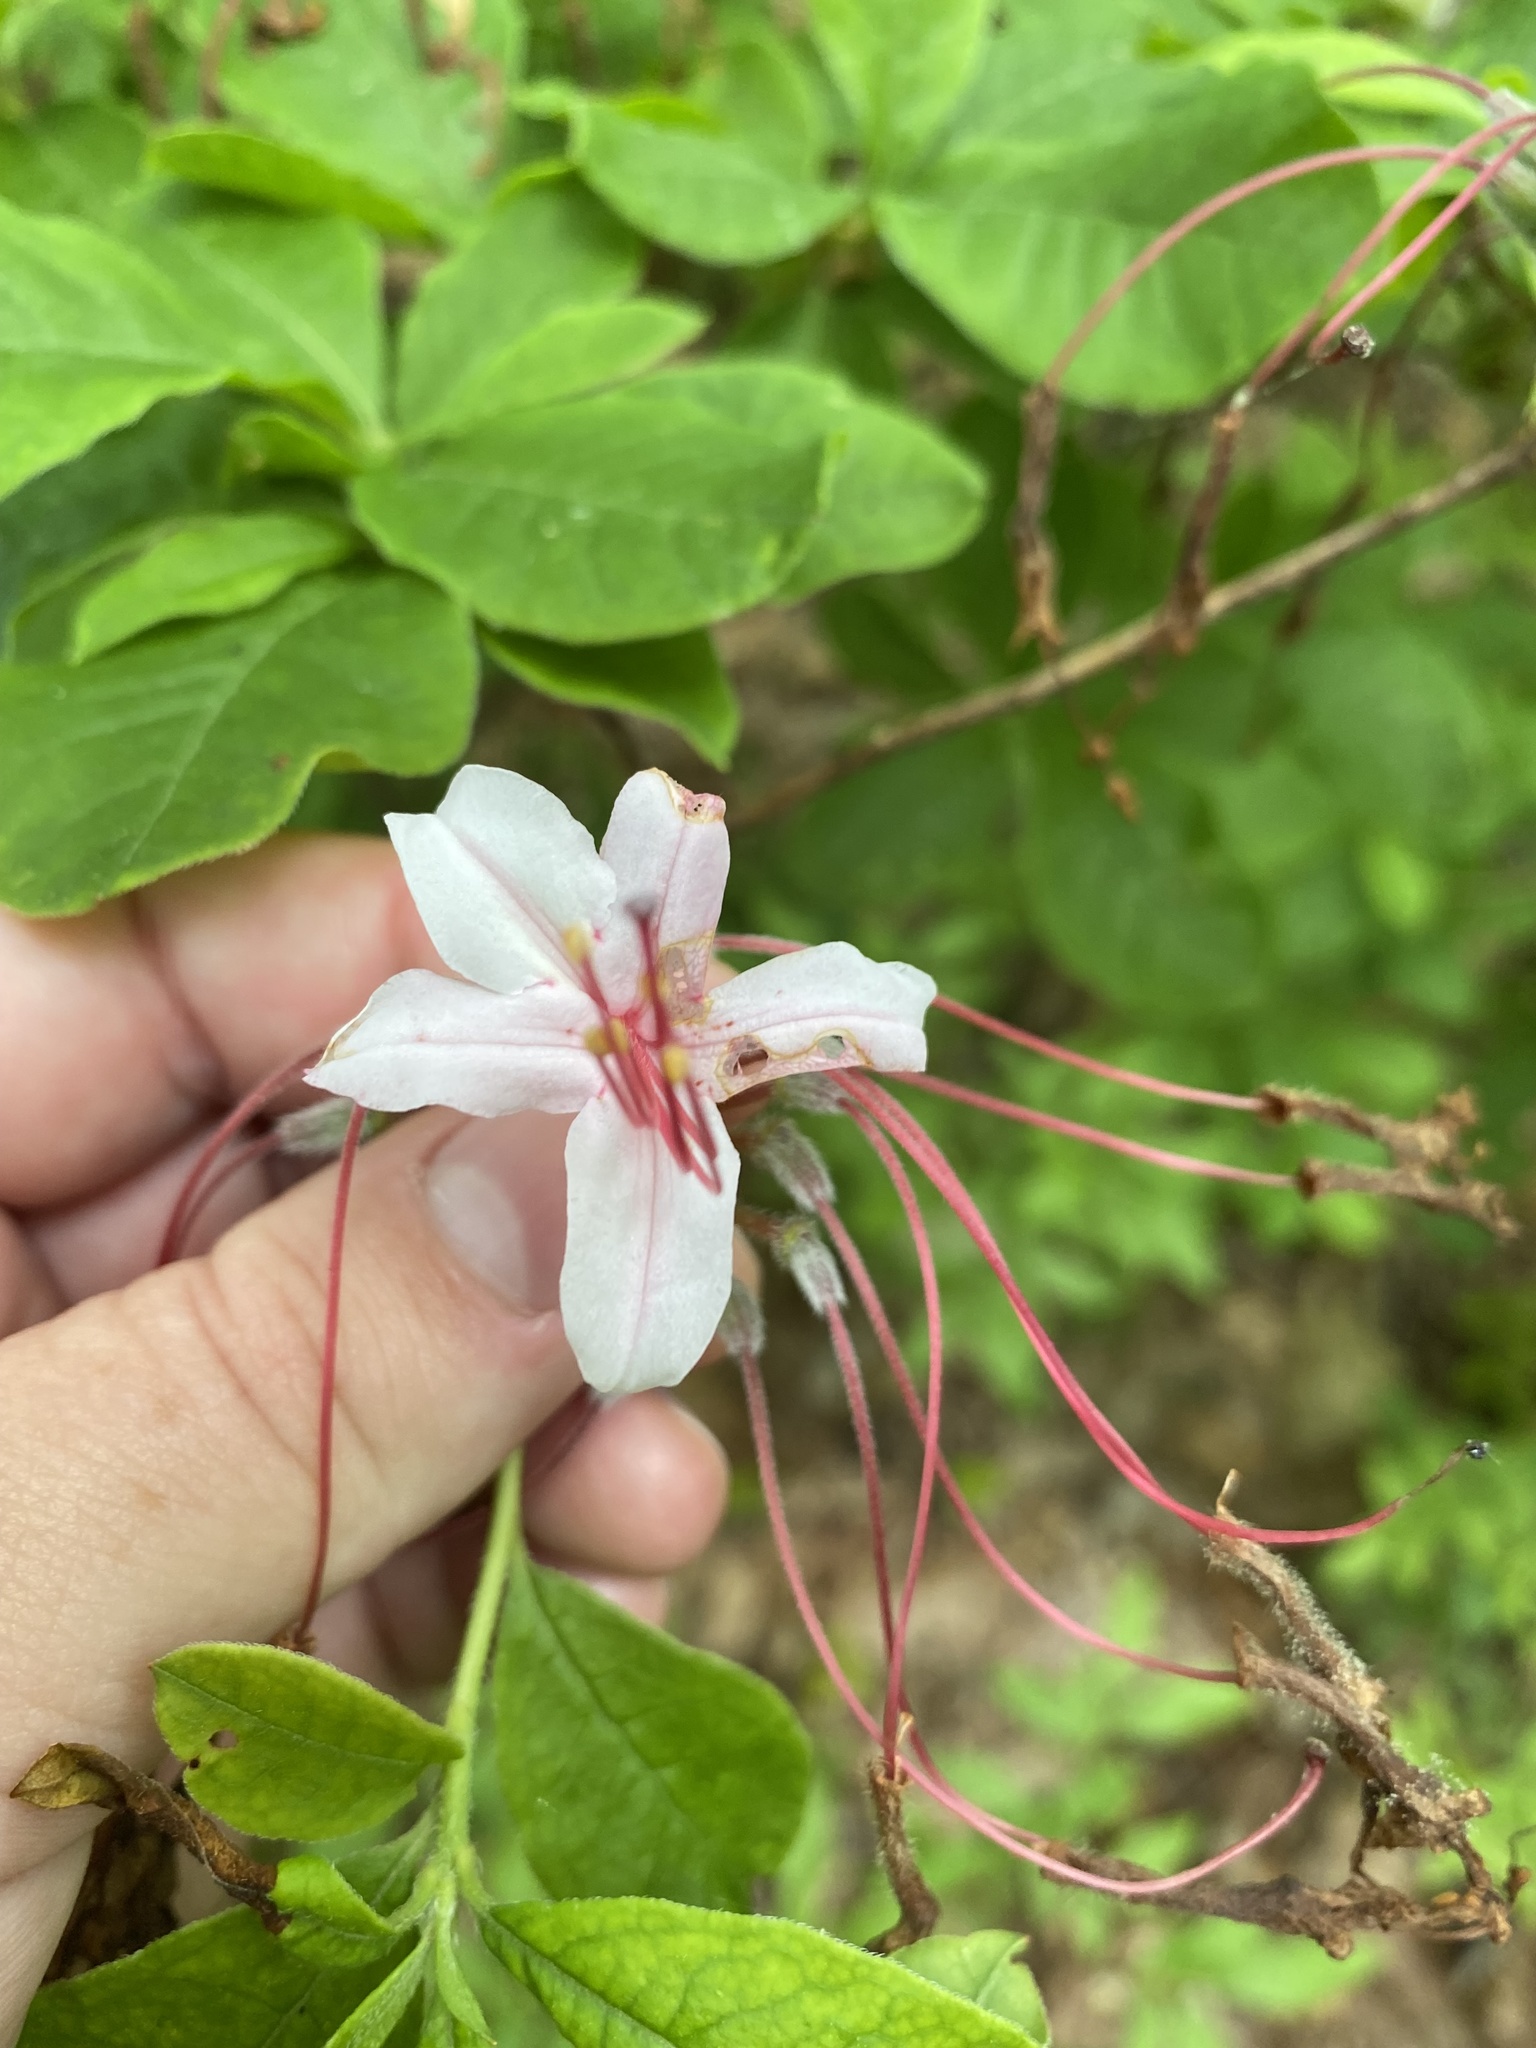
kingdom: Plantae
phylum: Tracheophyta
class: Magnoliopsida
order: Ericales
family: Ericaceae
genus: Rhododendron
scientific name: Rhododendron periclymenoides
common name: Election-pink
